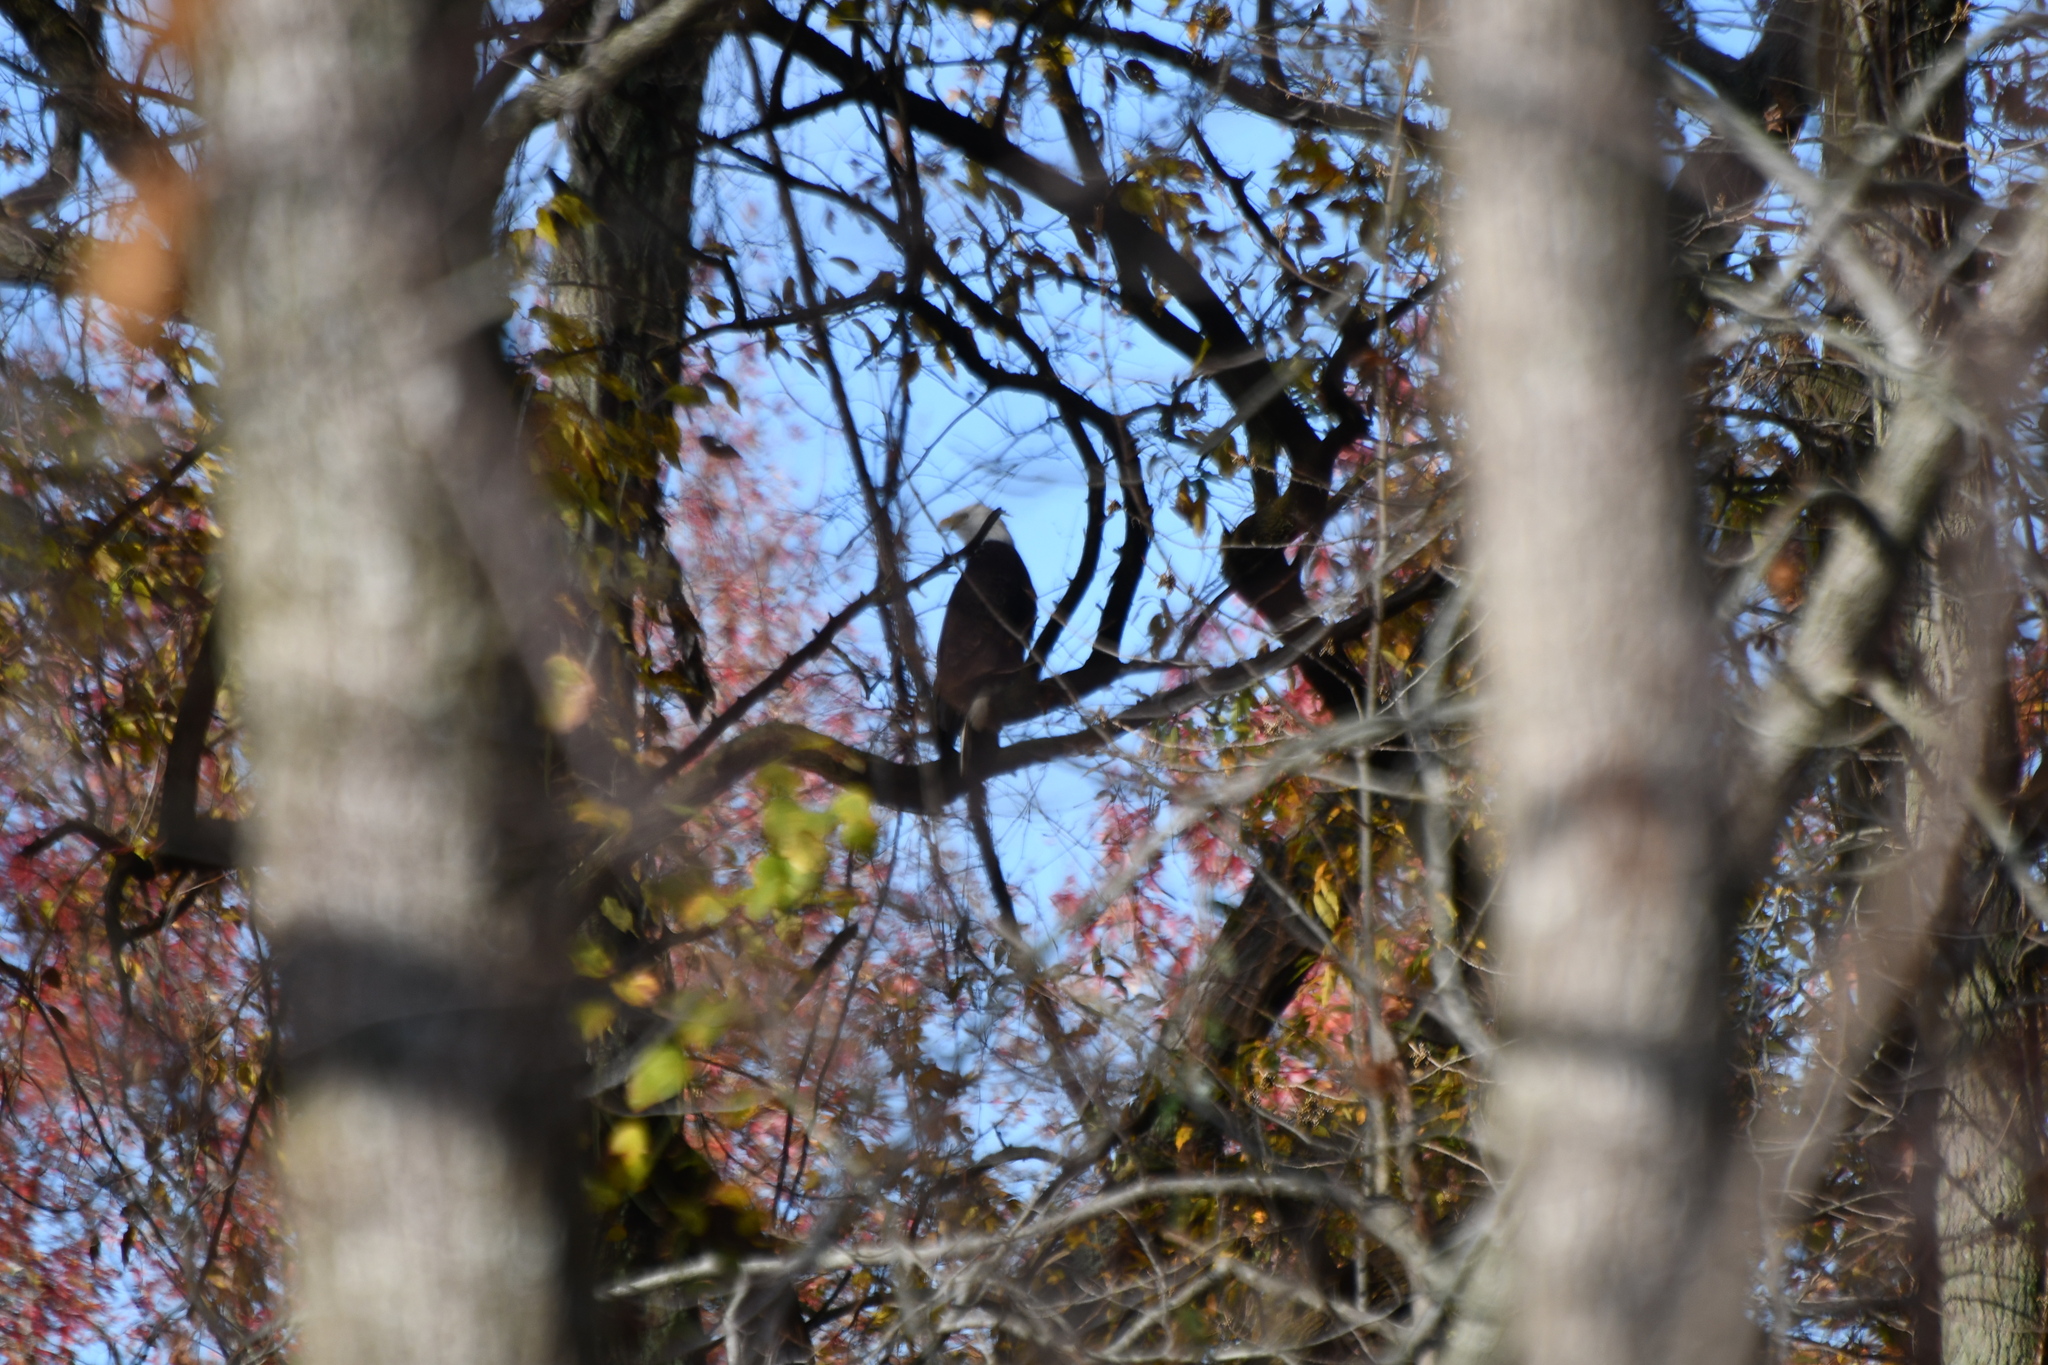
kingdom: Animalia
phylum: Chordata
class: Aves
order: Accipitriformes
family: Accipitridae
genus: Haliaeetus
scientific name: Haliaeetus leucocephalus
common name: Bald eagle
